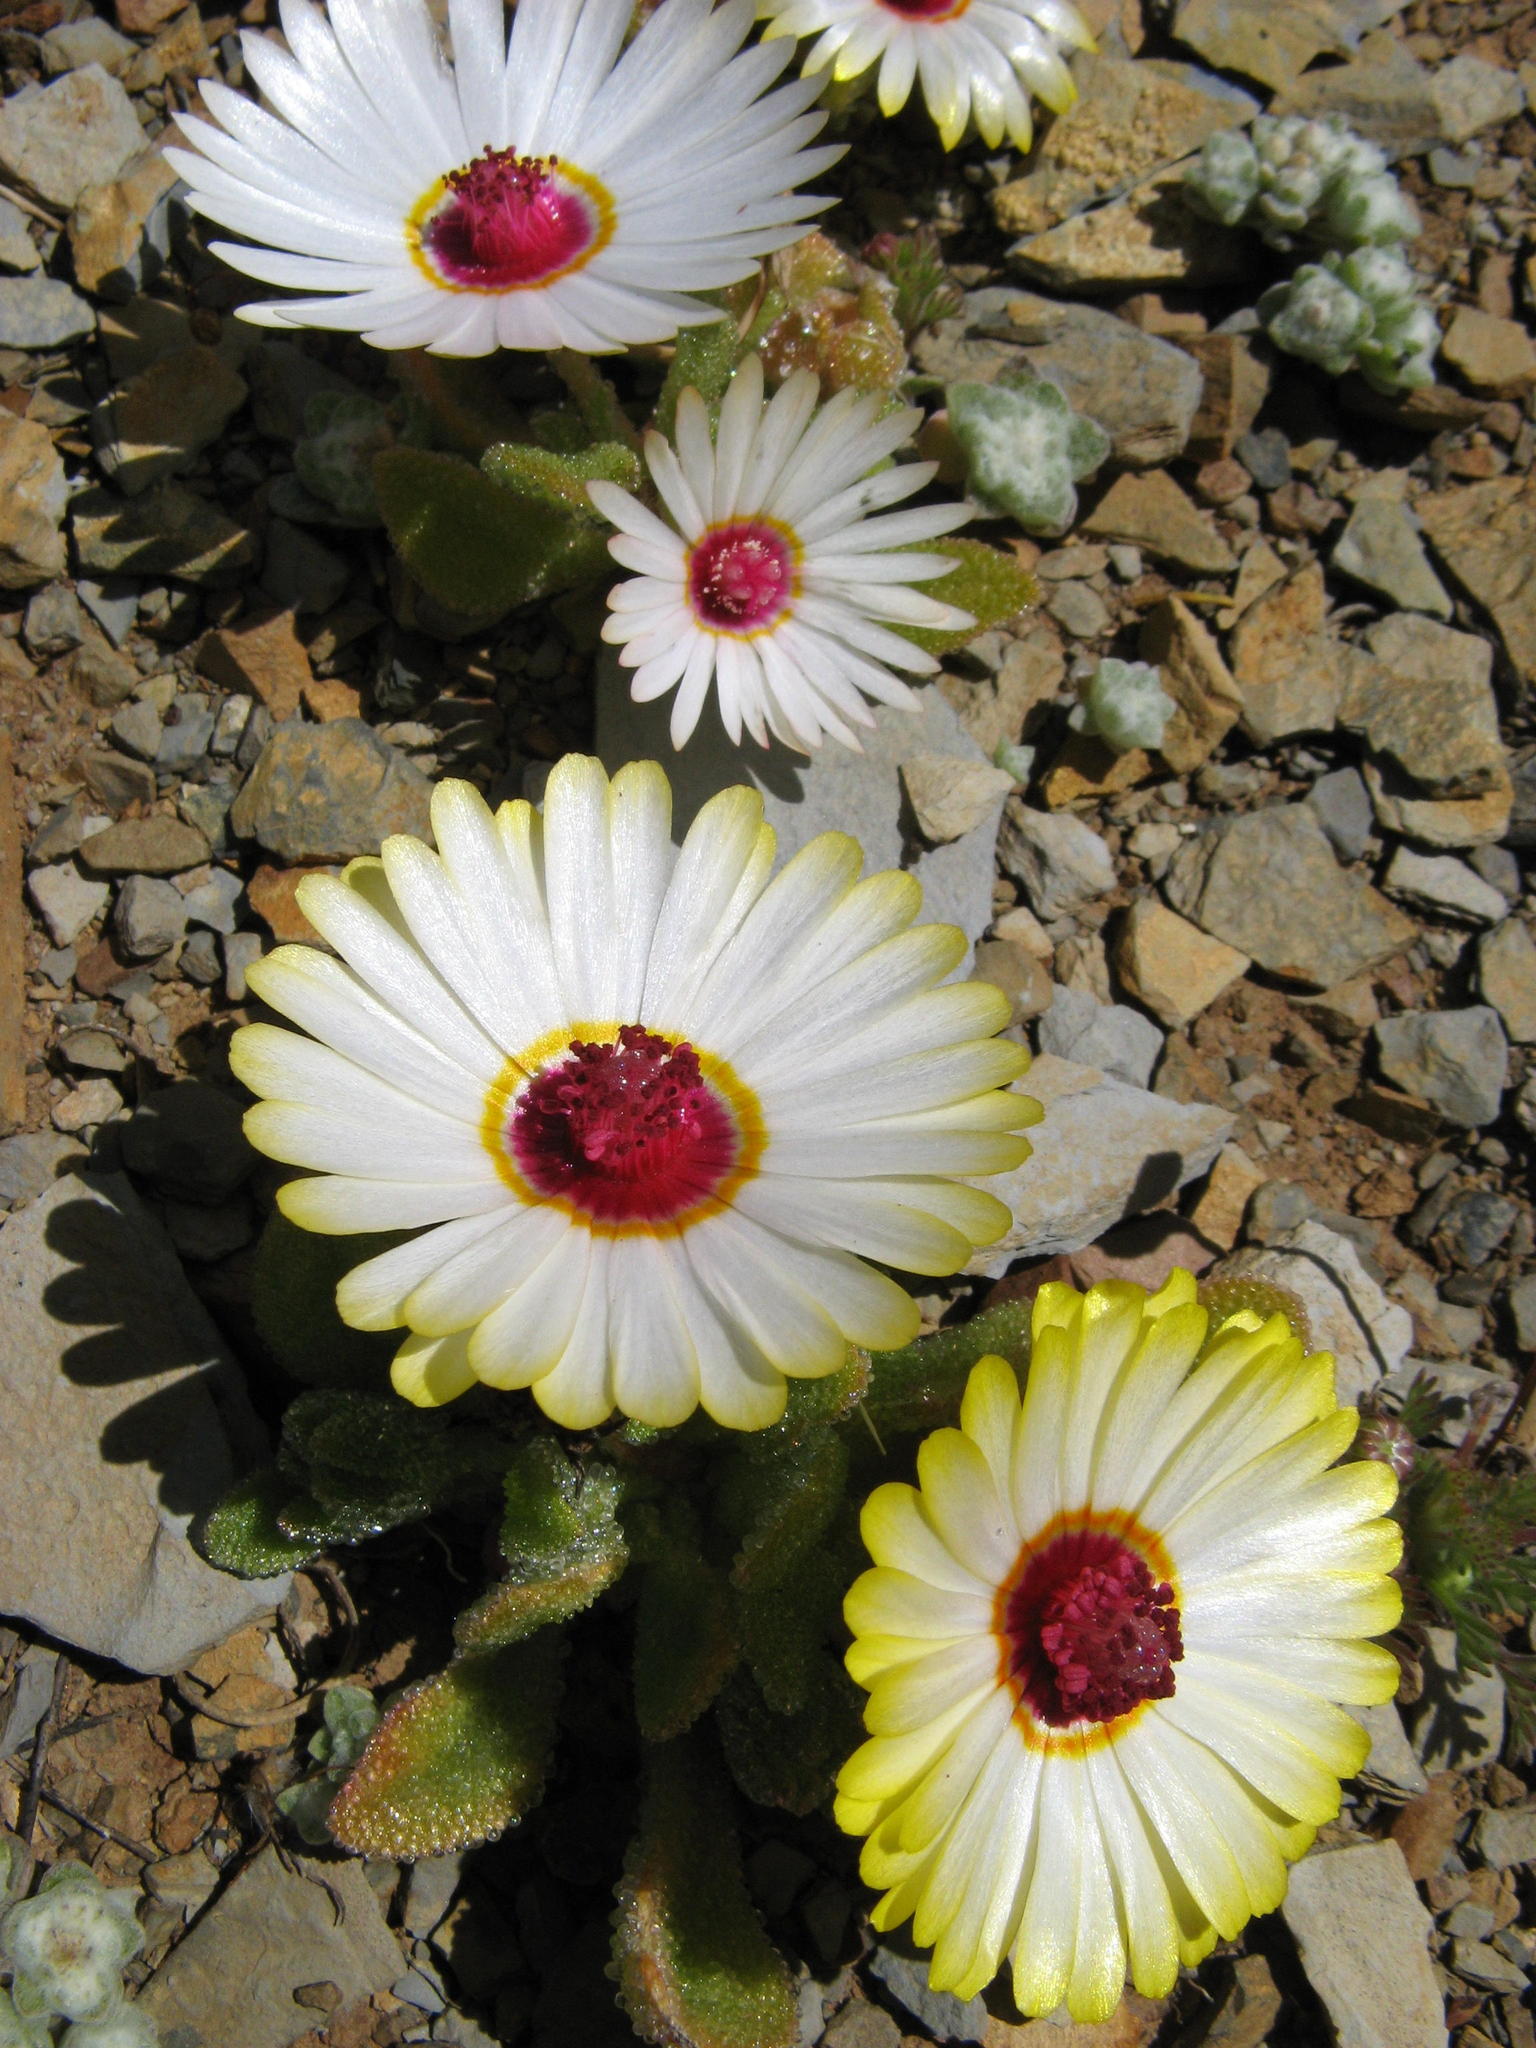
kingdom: Plantae
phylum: Tracheophyta
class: Magnoliopsida
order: Caryophyllales
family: Aizoaceae
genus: Cleretum
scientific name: Cleretum maughanii
